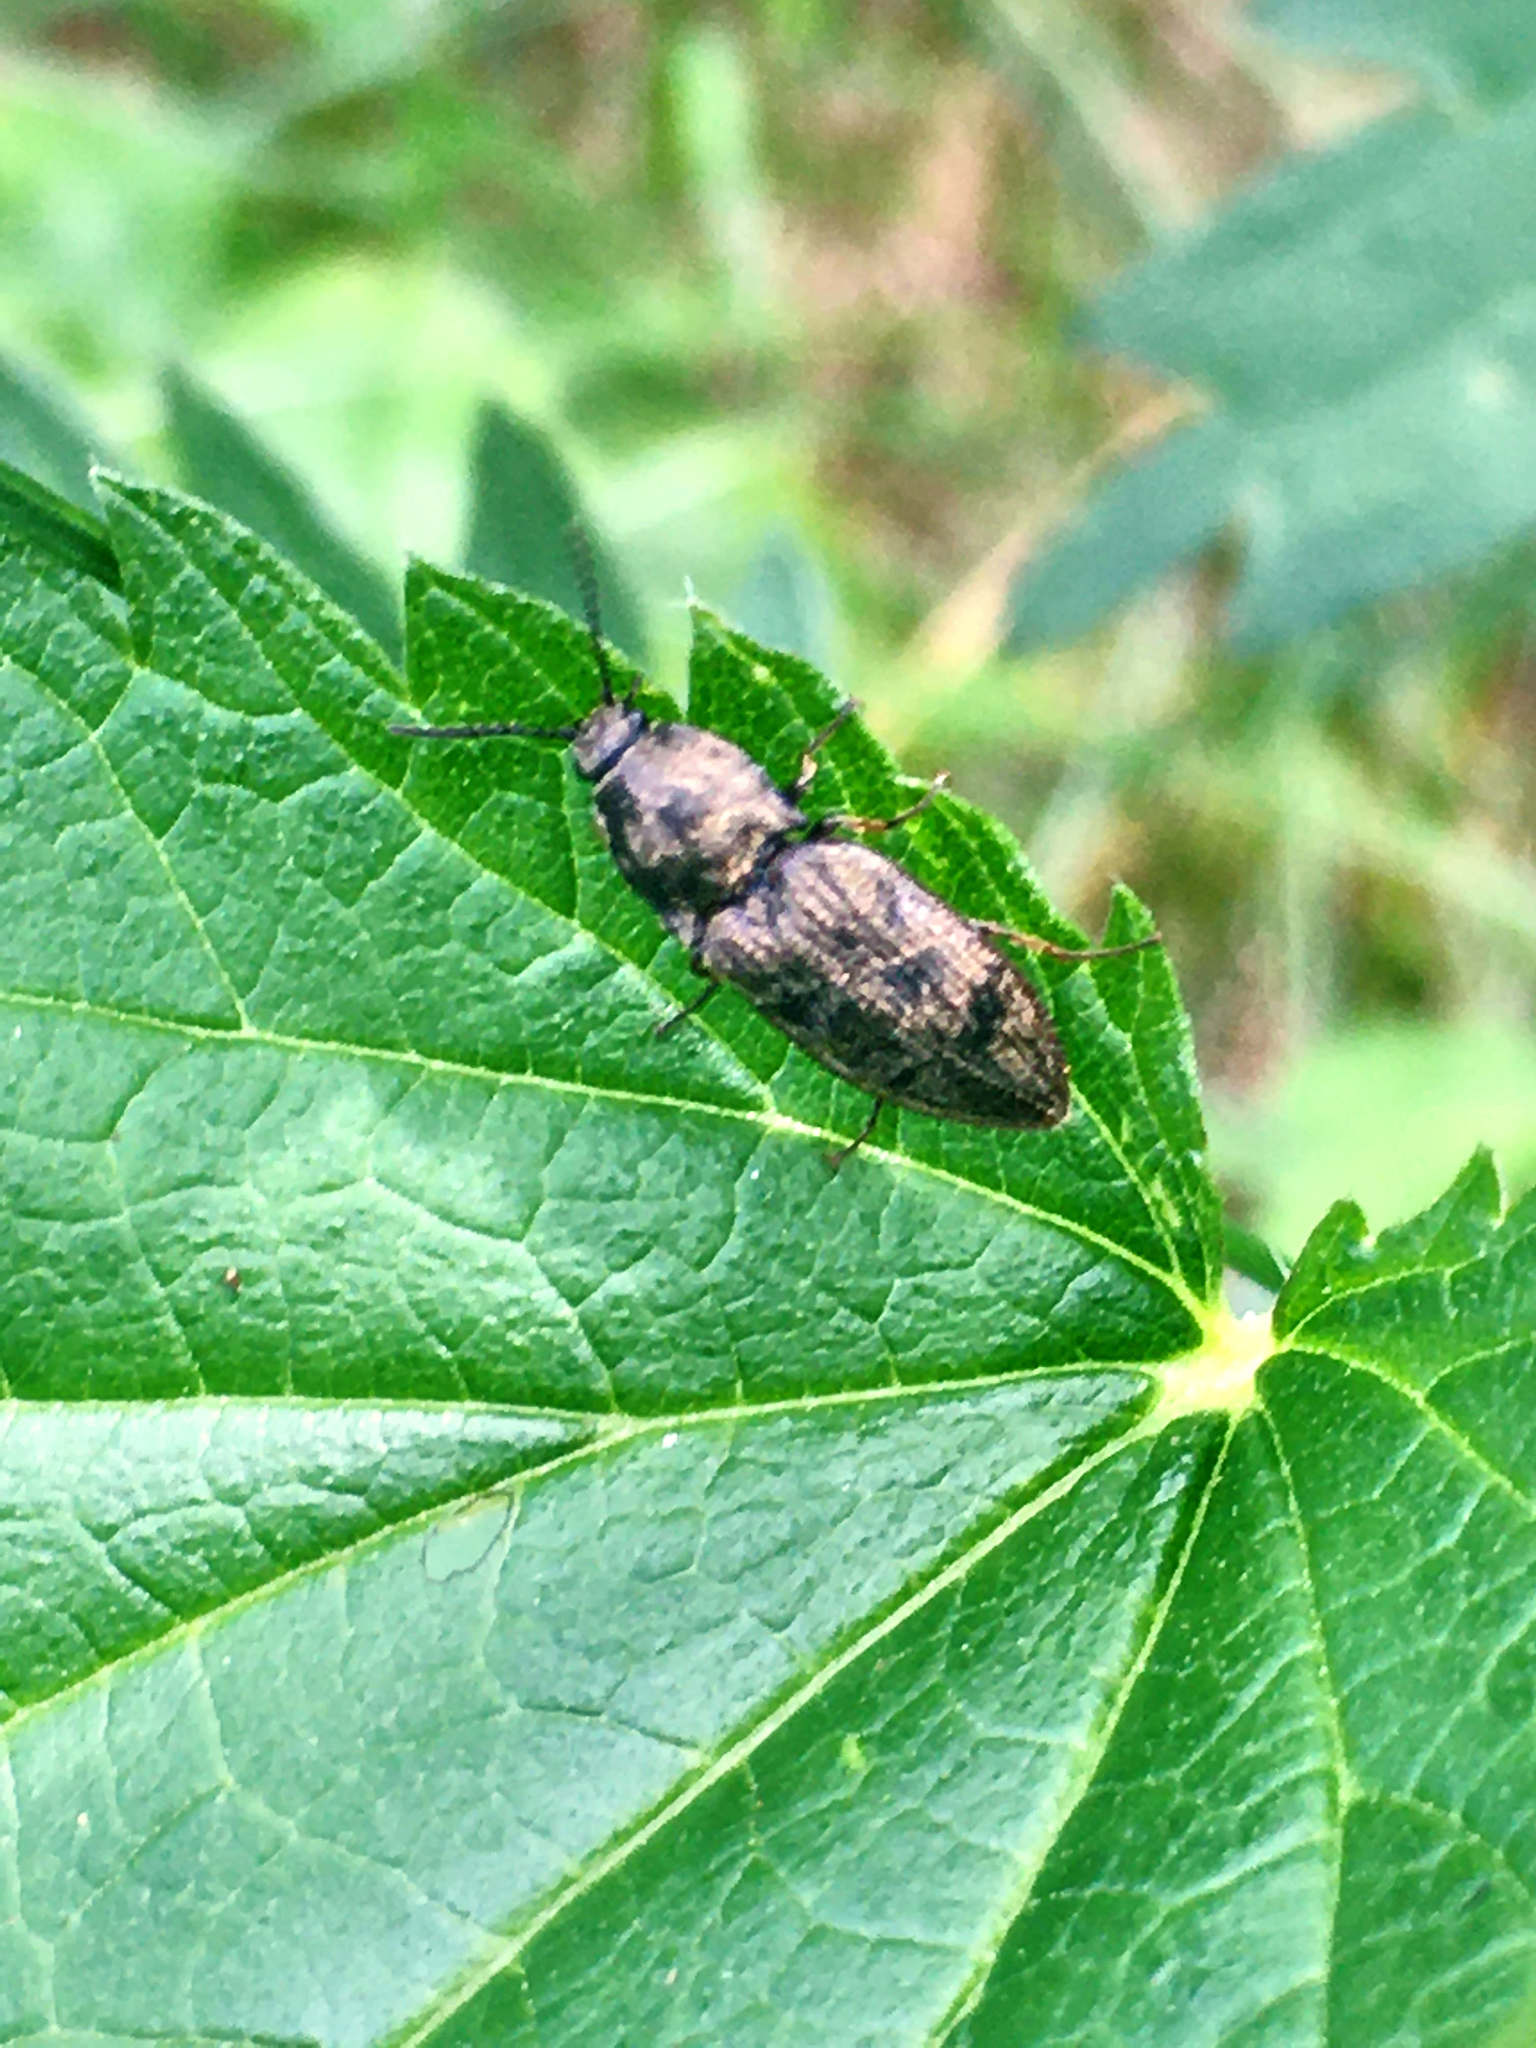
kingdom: Animalia
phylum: Arthropoda
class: Insecta
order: Coleoptera
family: Elateridae
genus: Prosternon
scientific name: Prosternon tessellatum
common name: Chequered click beetle
